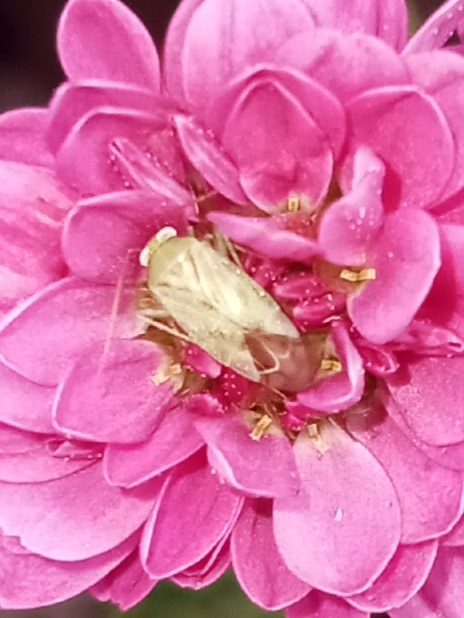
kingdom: Animalia
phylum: Arthropoda
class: Insecta
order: Hemiptera
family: Miridae
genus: Taylorilygus
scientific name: Taylorilygus apicalis
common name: Plant bug
